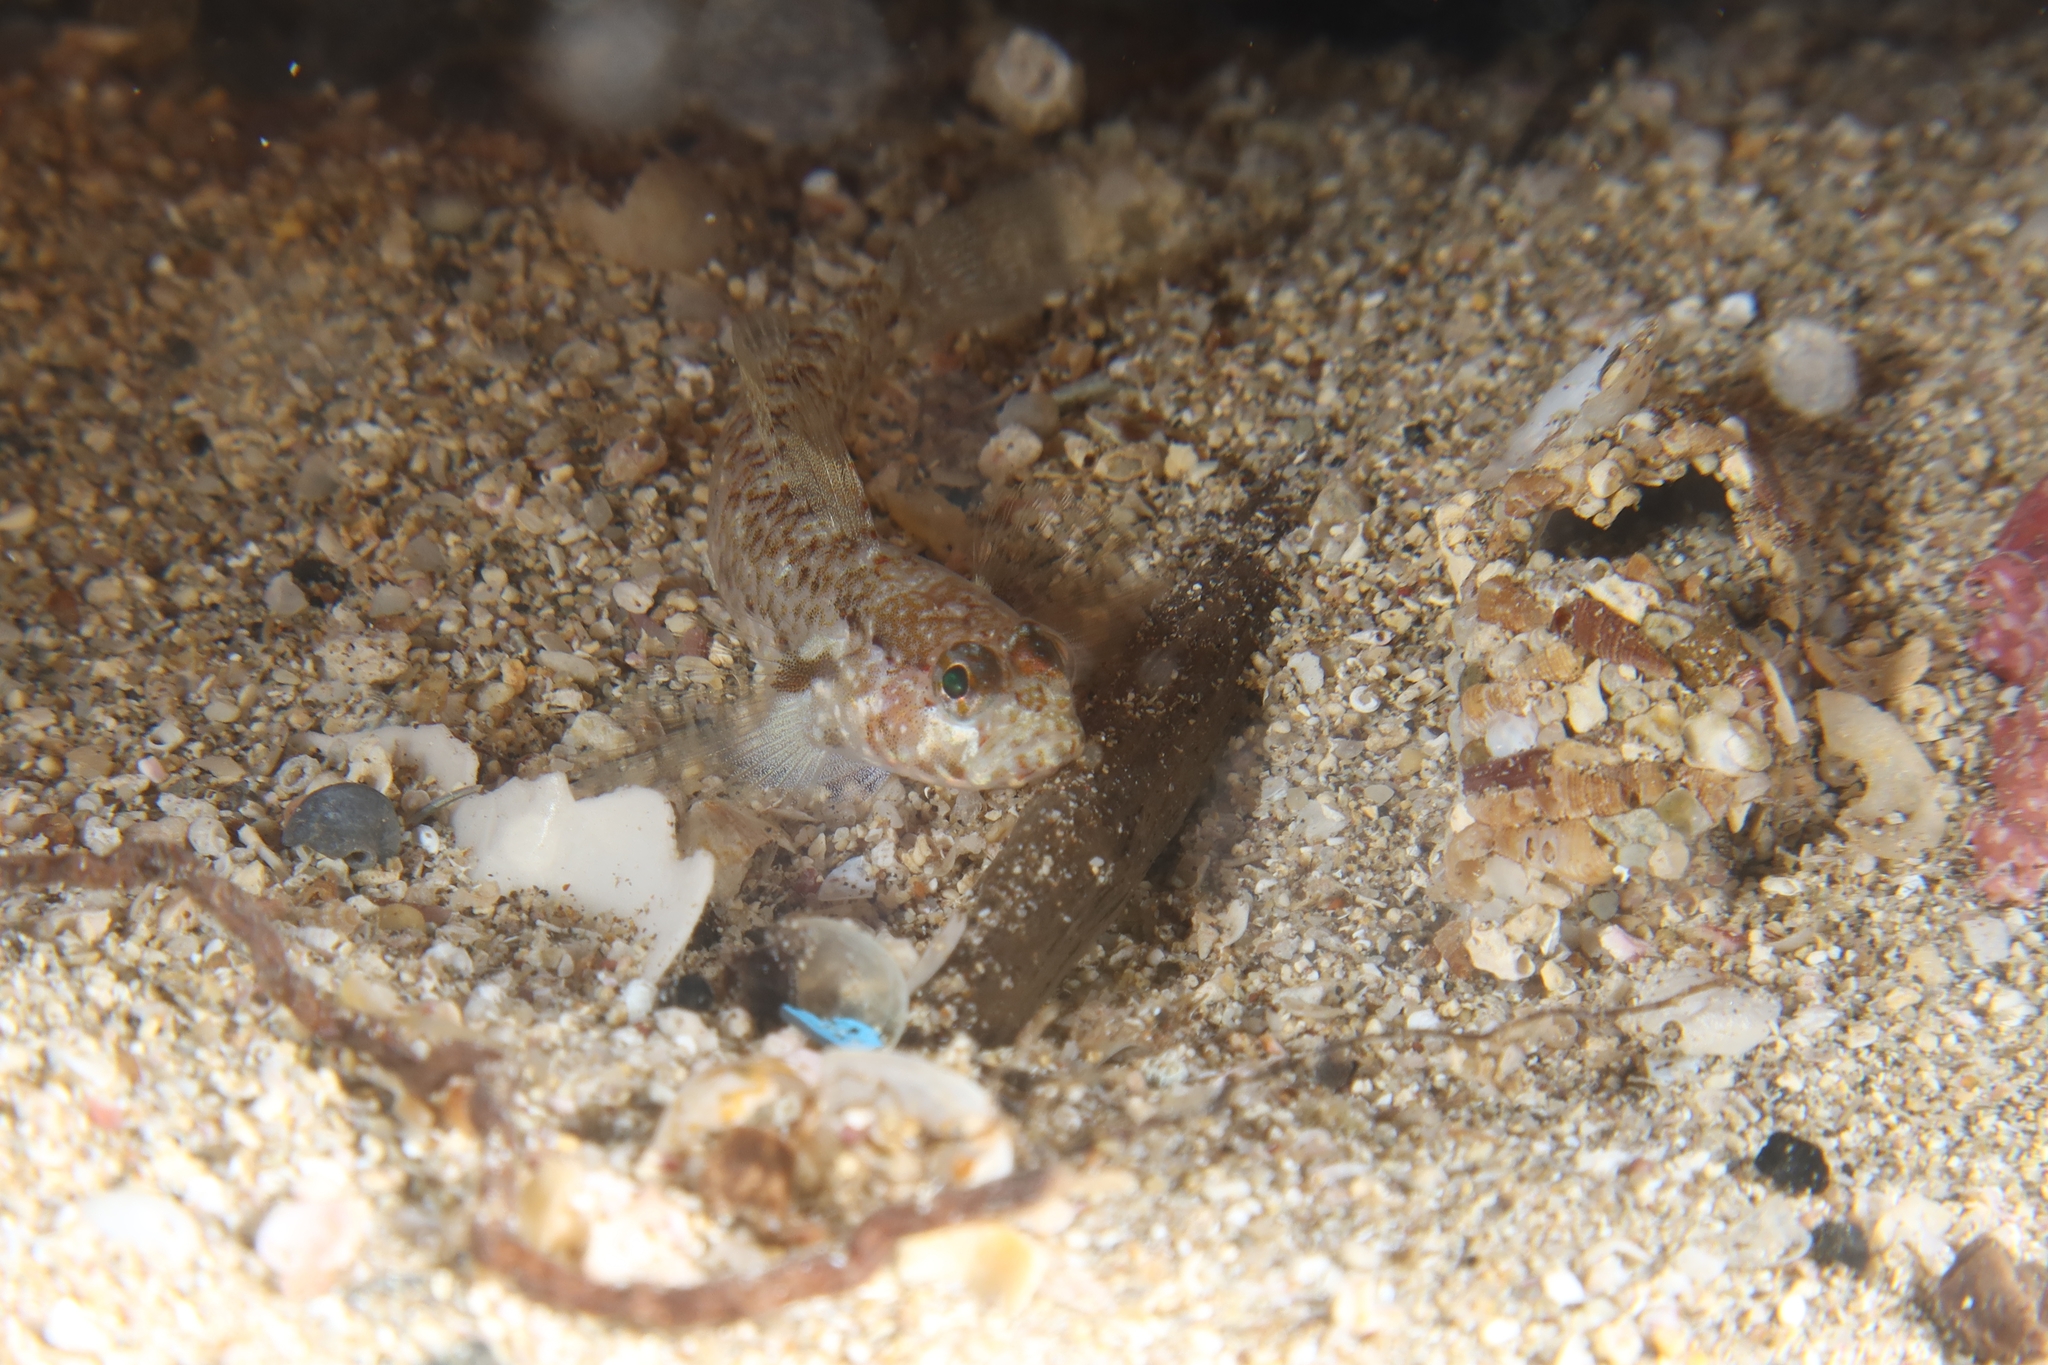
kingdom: Animalia
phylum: Chordata
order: Perciformes
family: Gobiidae
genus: Vanneaugobius
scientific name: Vanneaugobius canariensis
